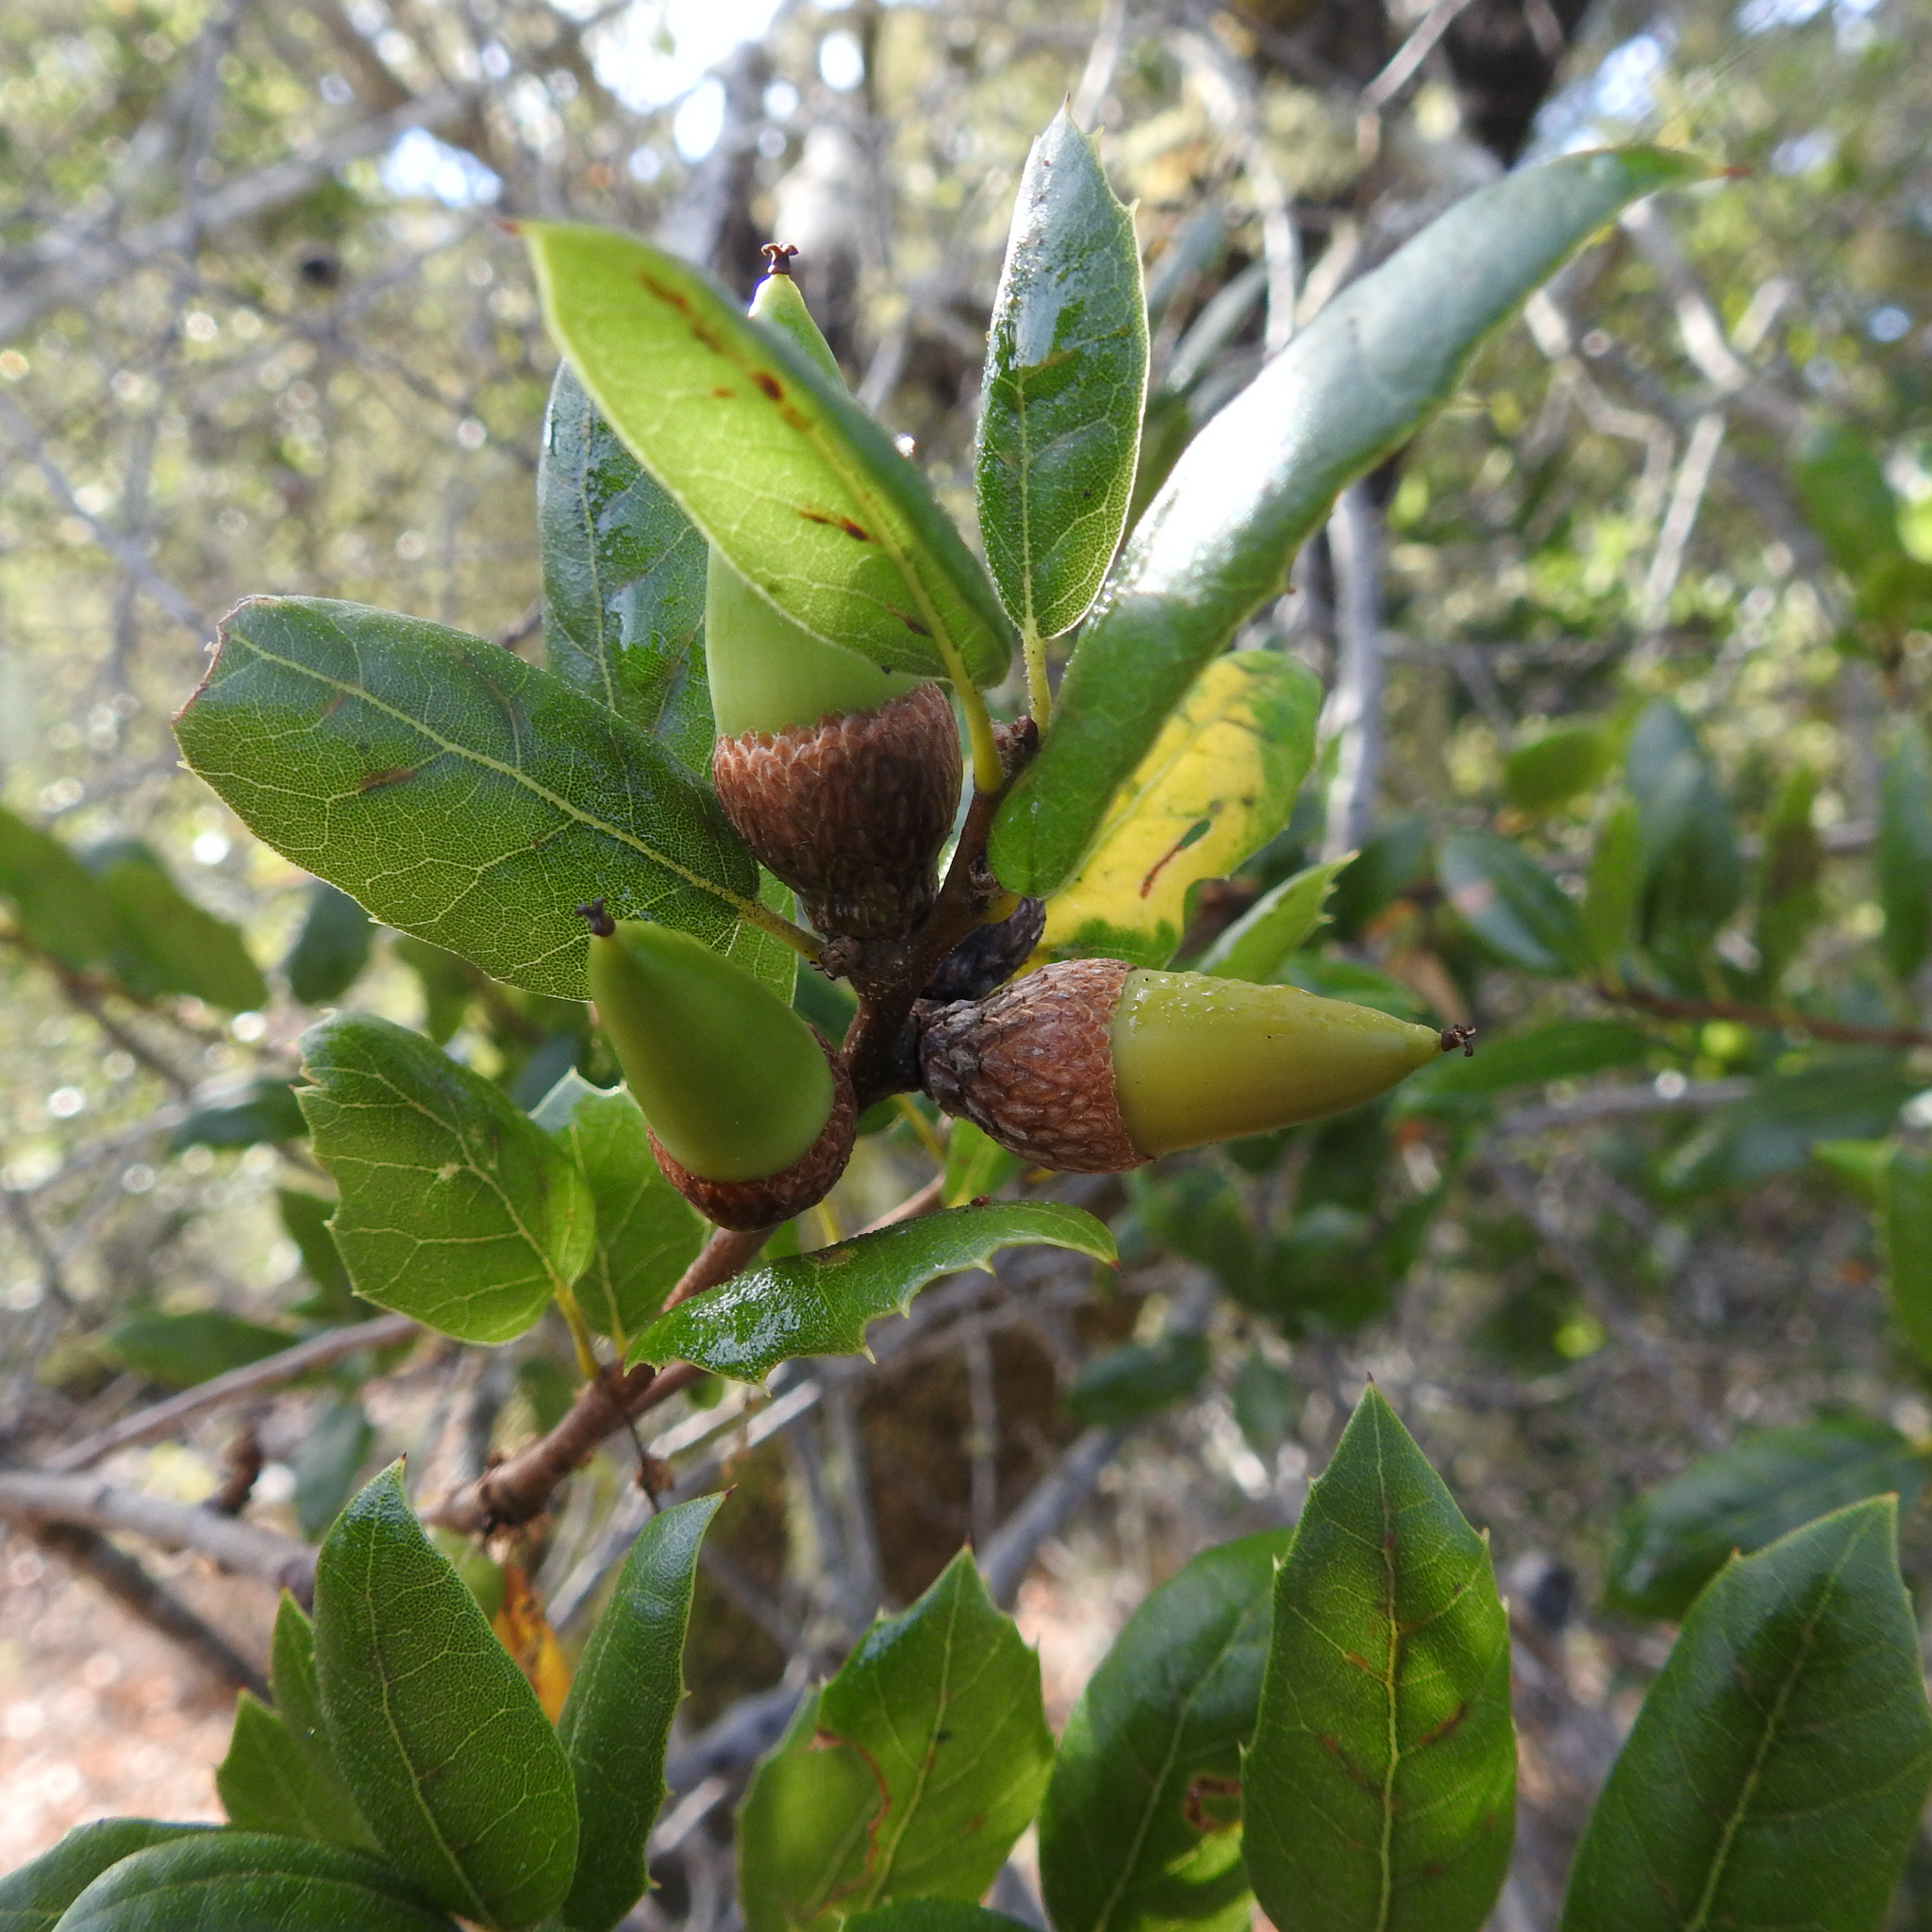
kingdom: Plantae
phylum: Tracheophyta
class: Magnoliopsida
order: Fagales
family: Fagaceae
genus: Quercus
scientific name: Quercus agrifolia
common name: California live oak
